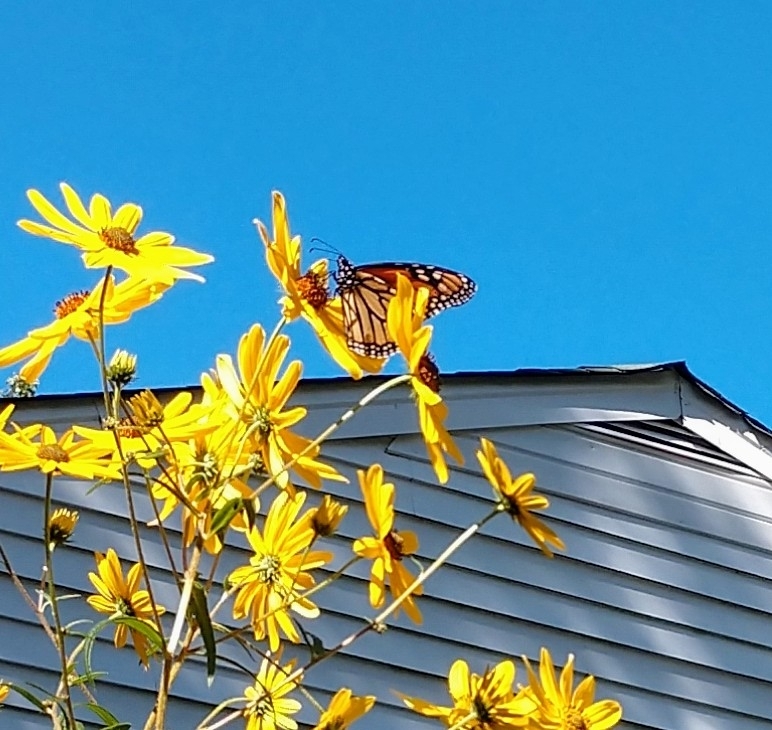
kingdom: Animalia
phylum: Arthropoda
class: Insecta
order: Lepidoptera
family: Nymphalidae
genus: Danaus
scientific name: Danaus plexippus
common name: Monarch
